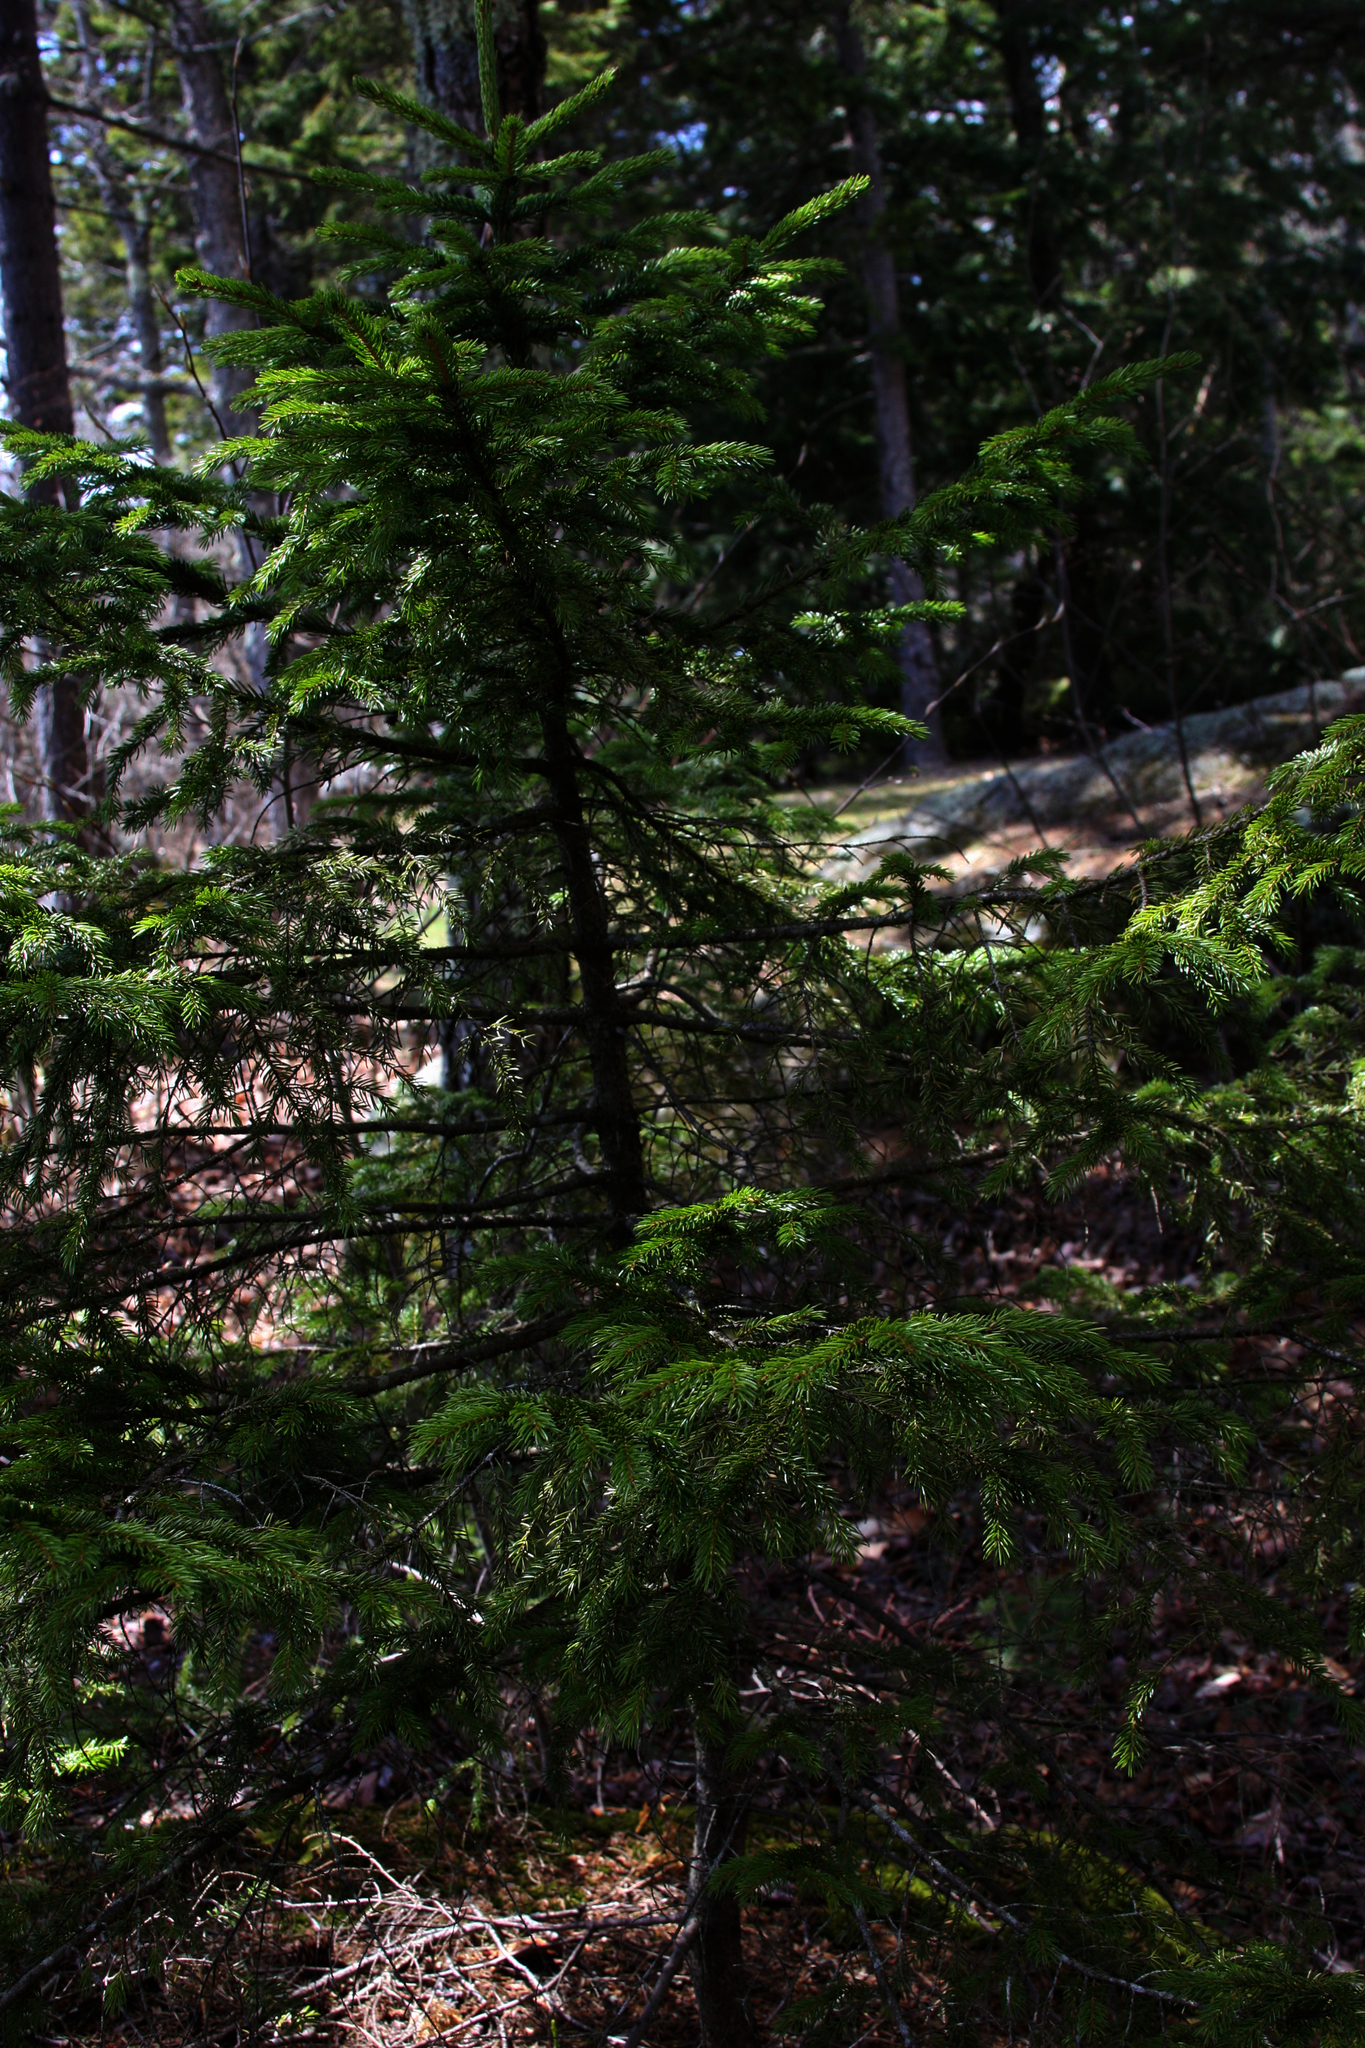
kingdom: Plantae
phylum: Tracheophyta
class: Pinopsida
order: Pinales
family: Pinaceae
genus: Picea
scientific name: Picea rubens
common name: Red spruce
